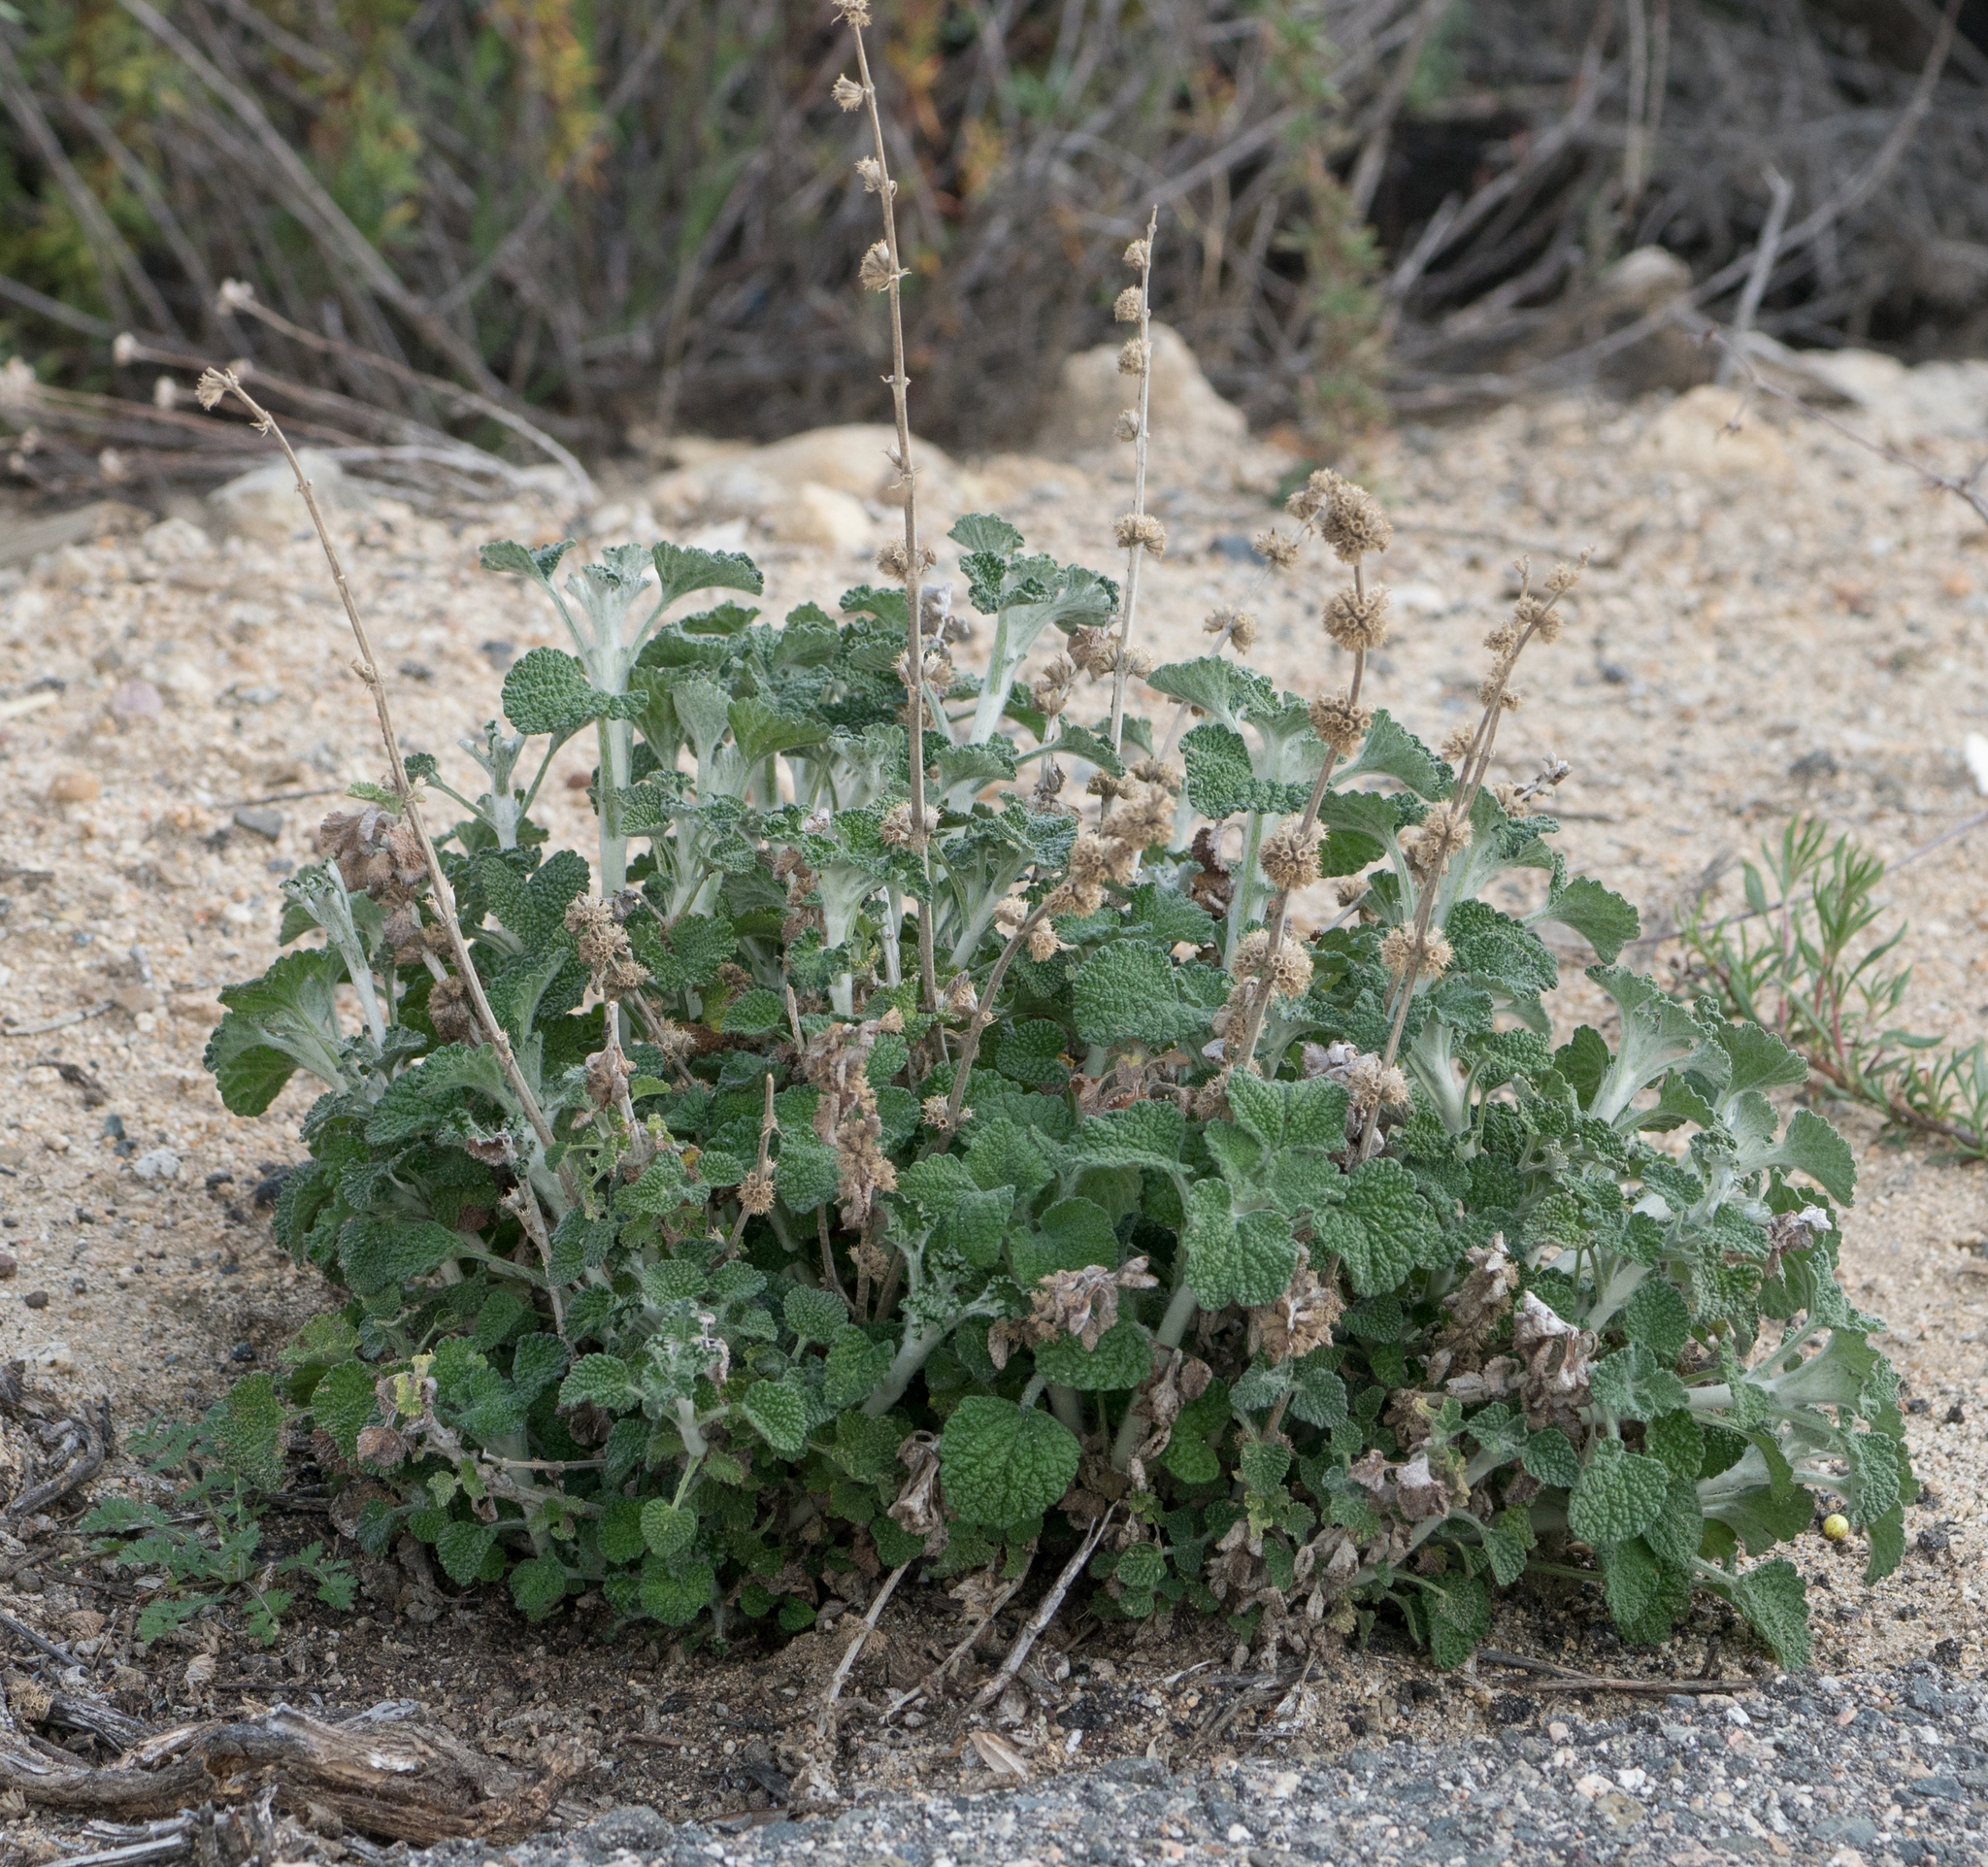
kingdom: Plantae
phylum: Tracheophyta
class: Magnoliopsida
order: Lamiales
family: Lamiaceae
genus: Marrubium
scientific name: Marrubium vulgare
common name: Horehound
